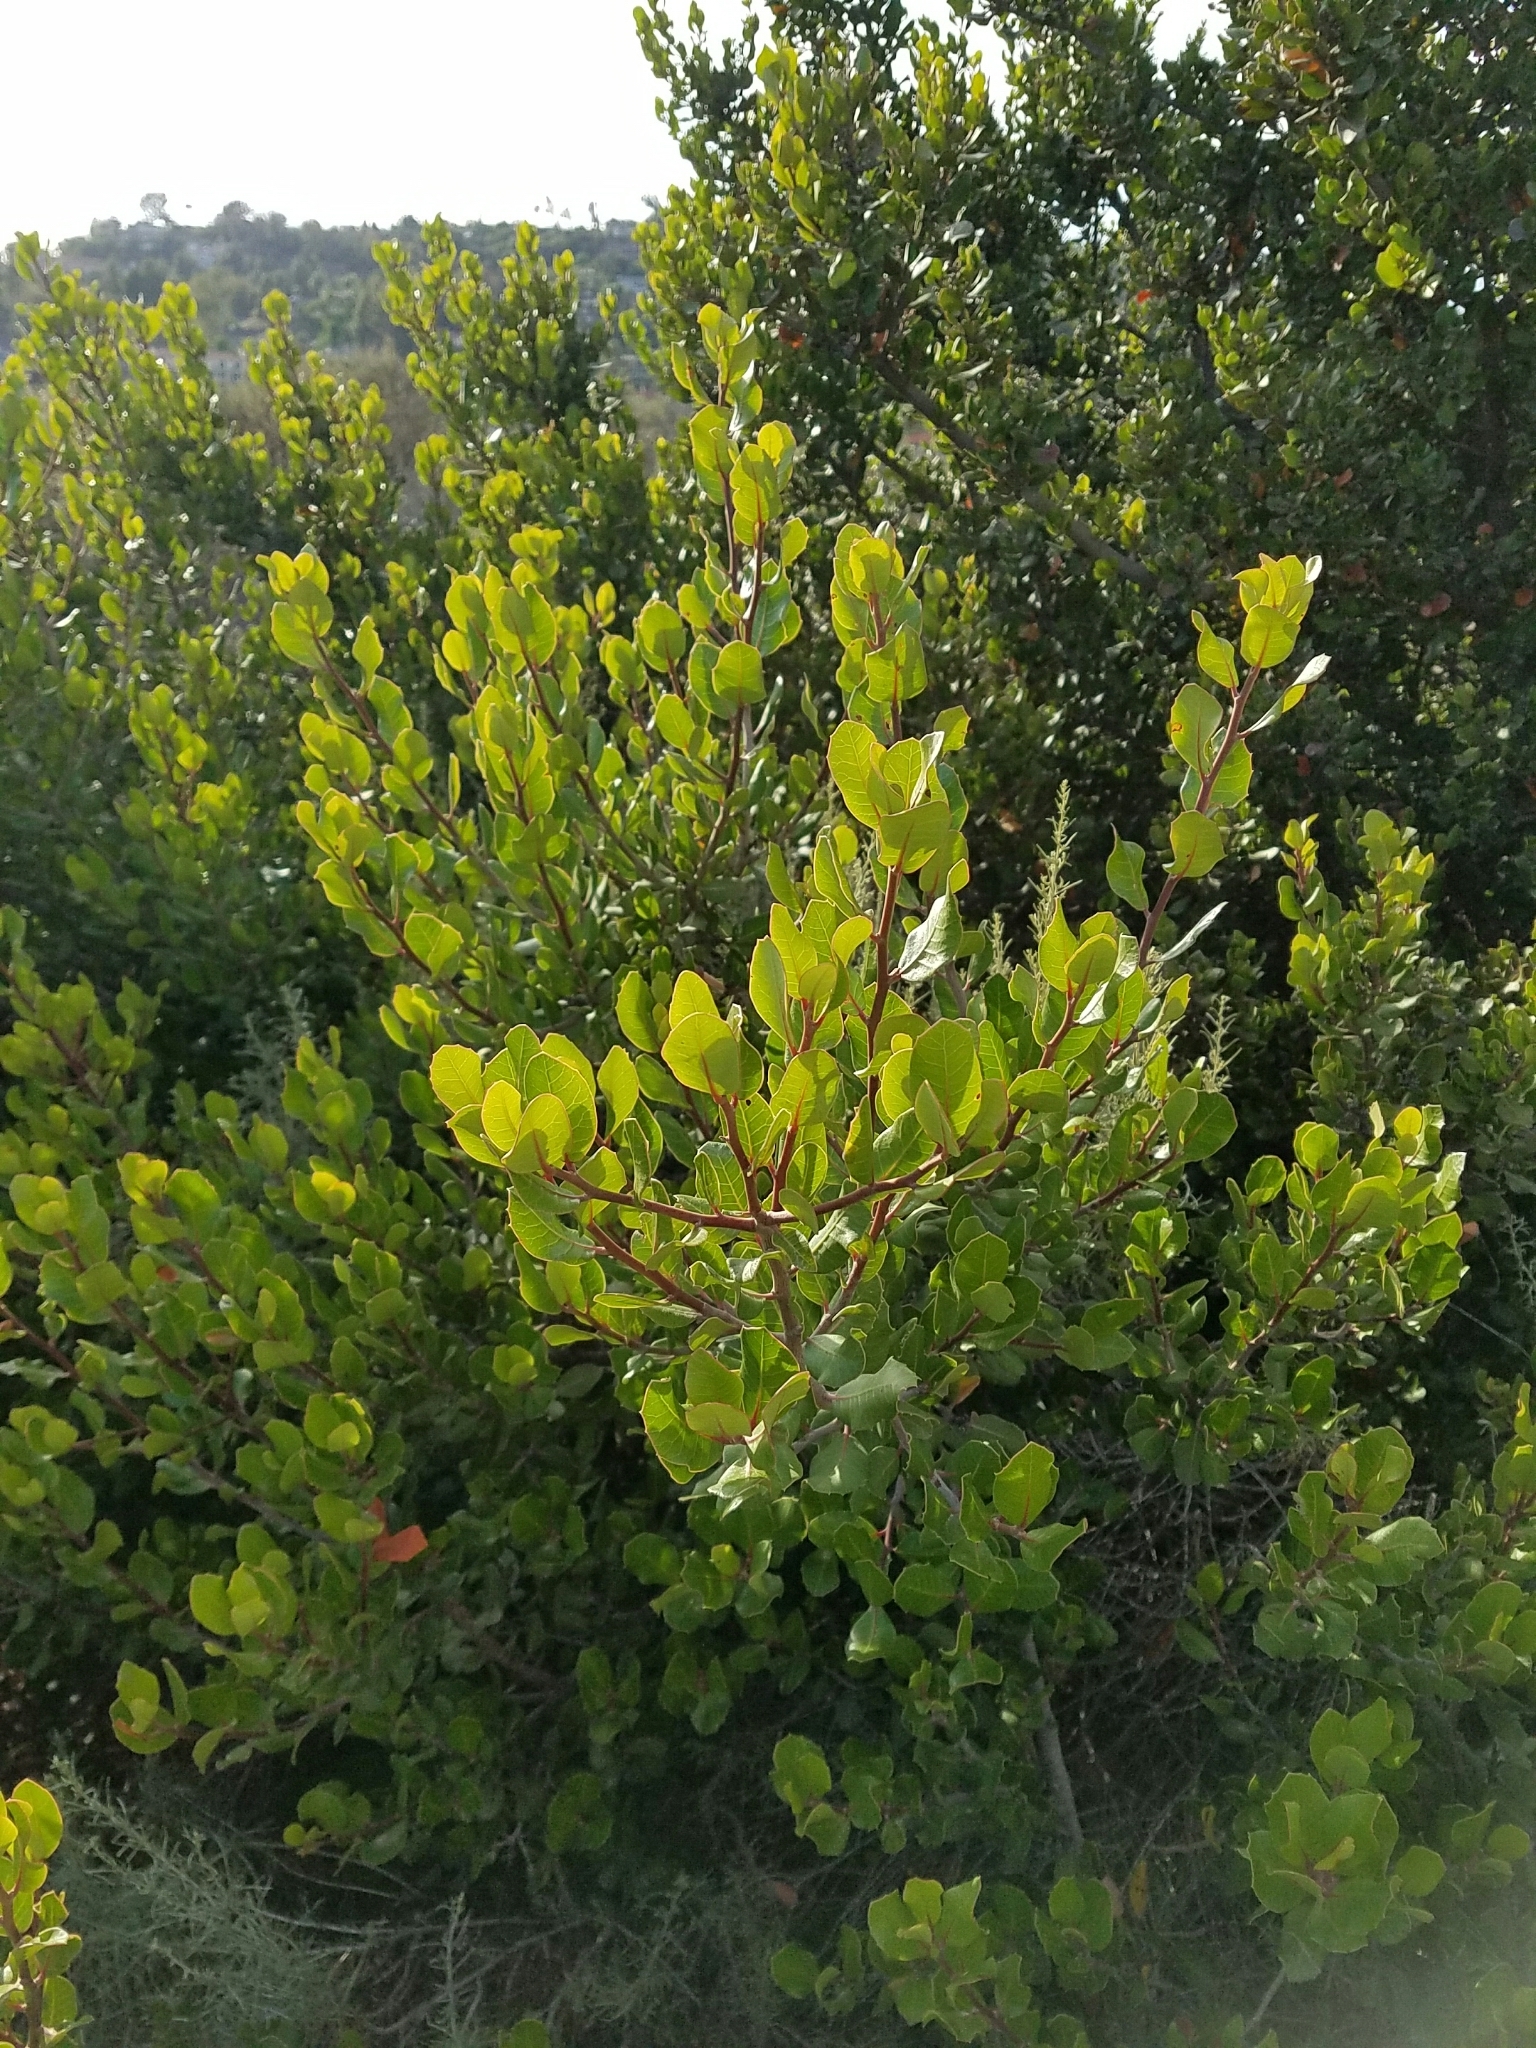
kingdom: Plantae
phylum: Tracheophyta
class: Magnoliopsida
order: Sapindales
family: Anacardiaceae
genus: Rhus
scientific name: Rhus integrifolia
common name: Lemonade sumac
